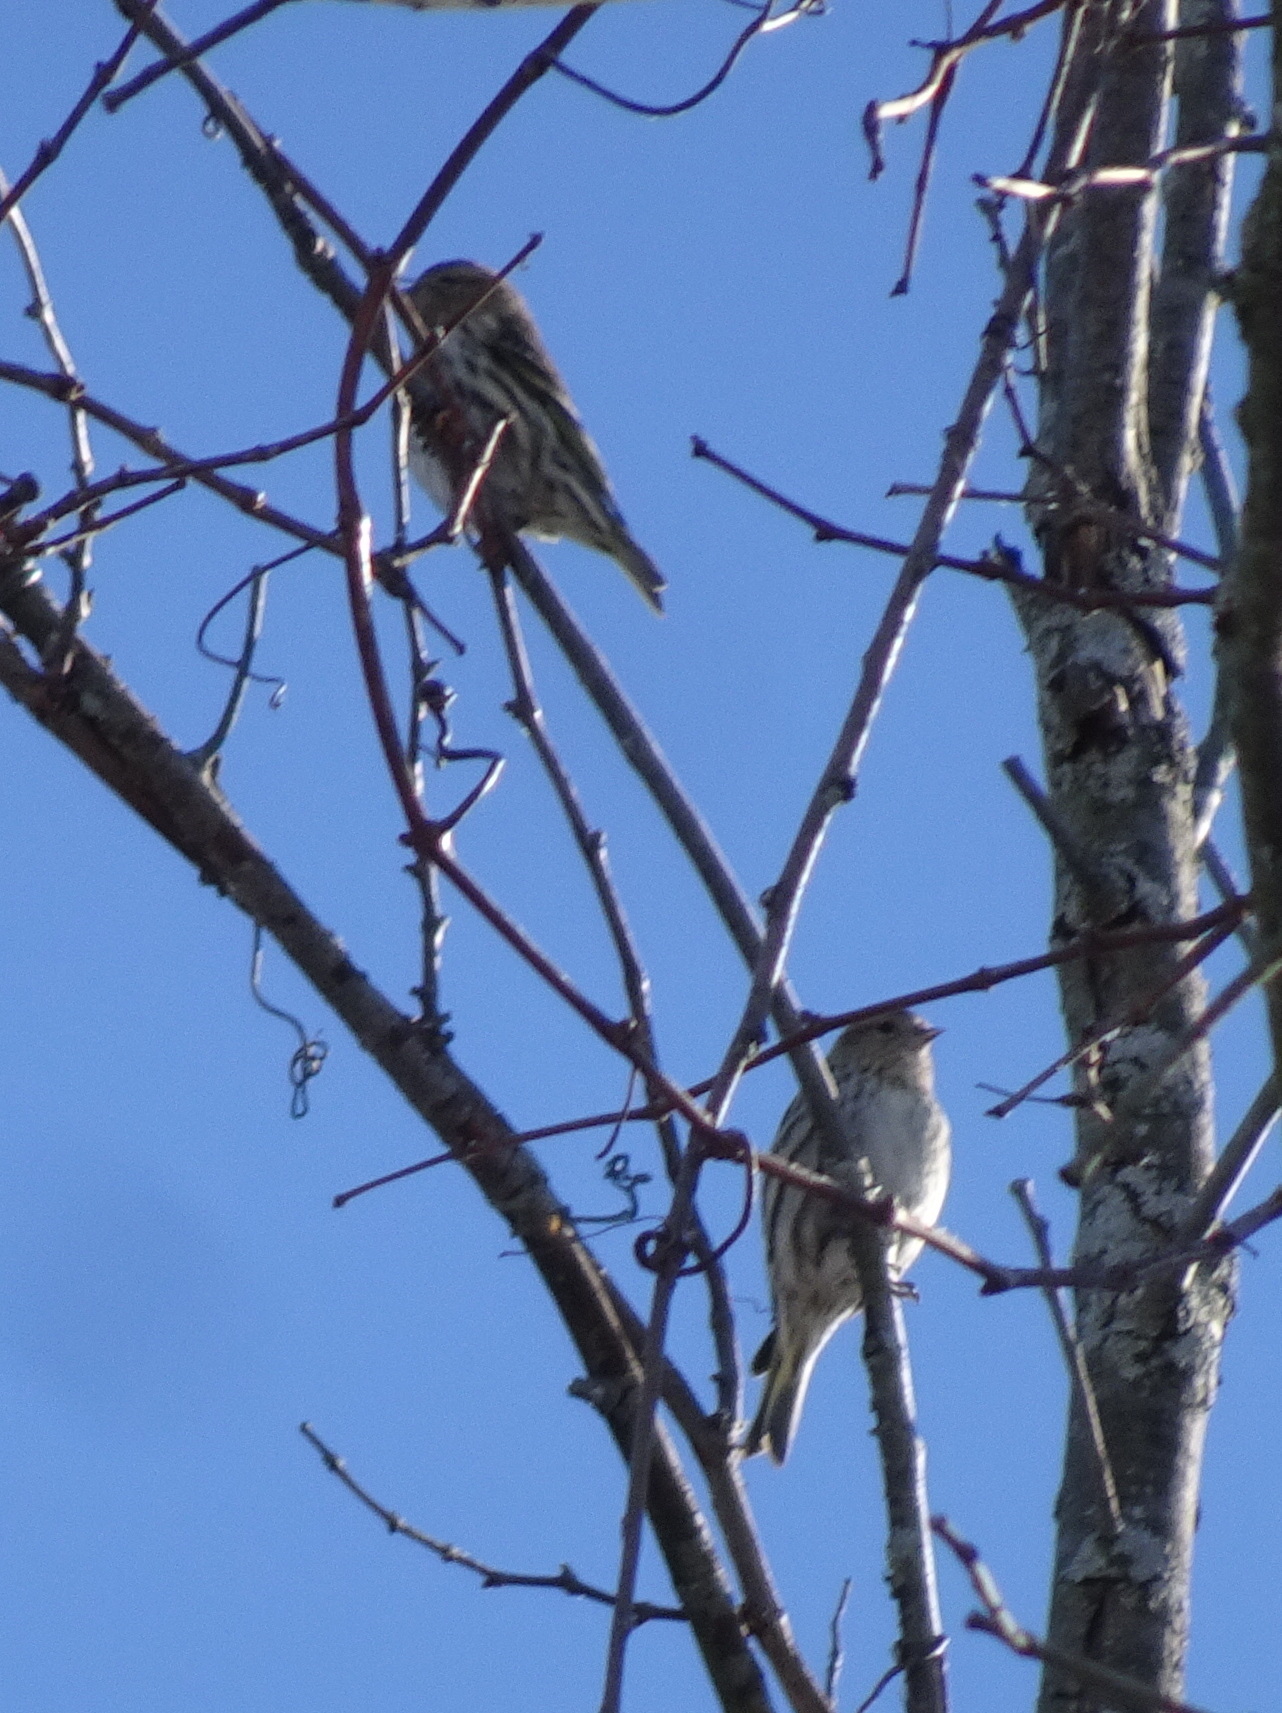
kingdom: Animalia
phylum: Chordata
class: Aves
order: Passeriformes
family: Fringillidae
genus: Spinus
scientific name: Spinus pinus
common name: Pine siskin
